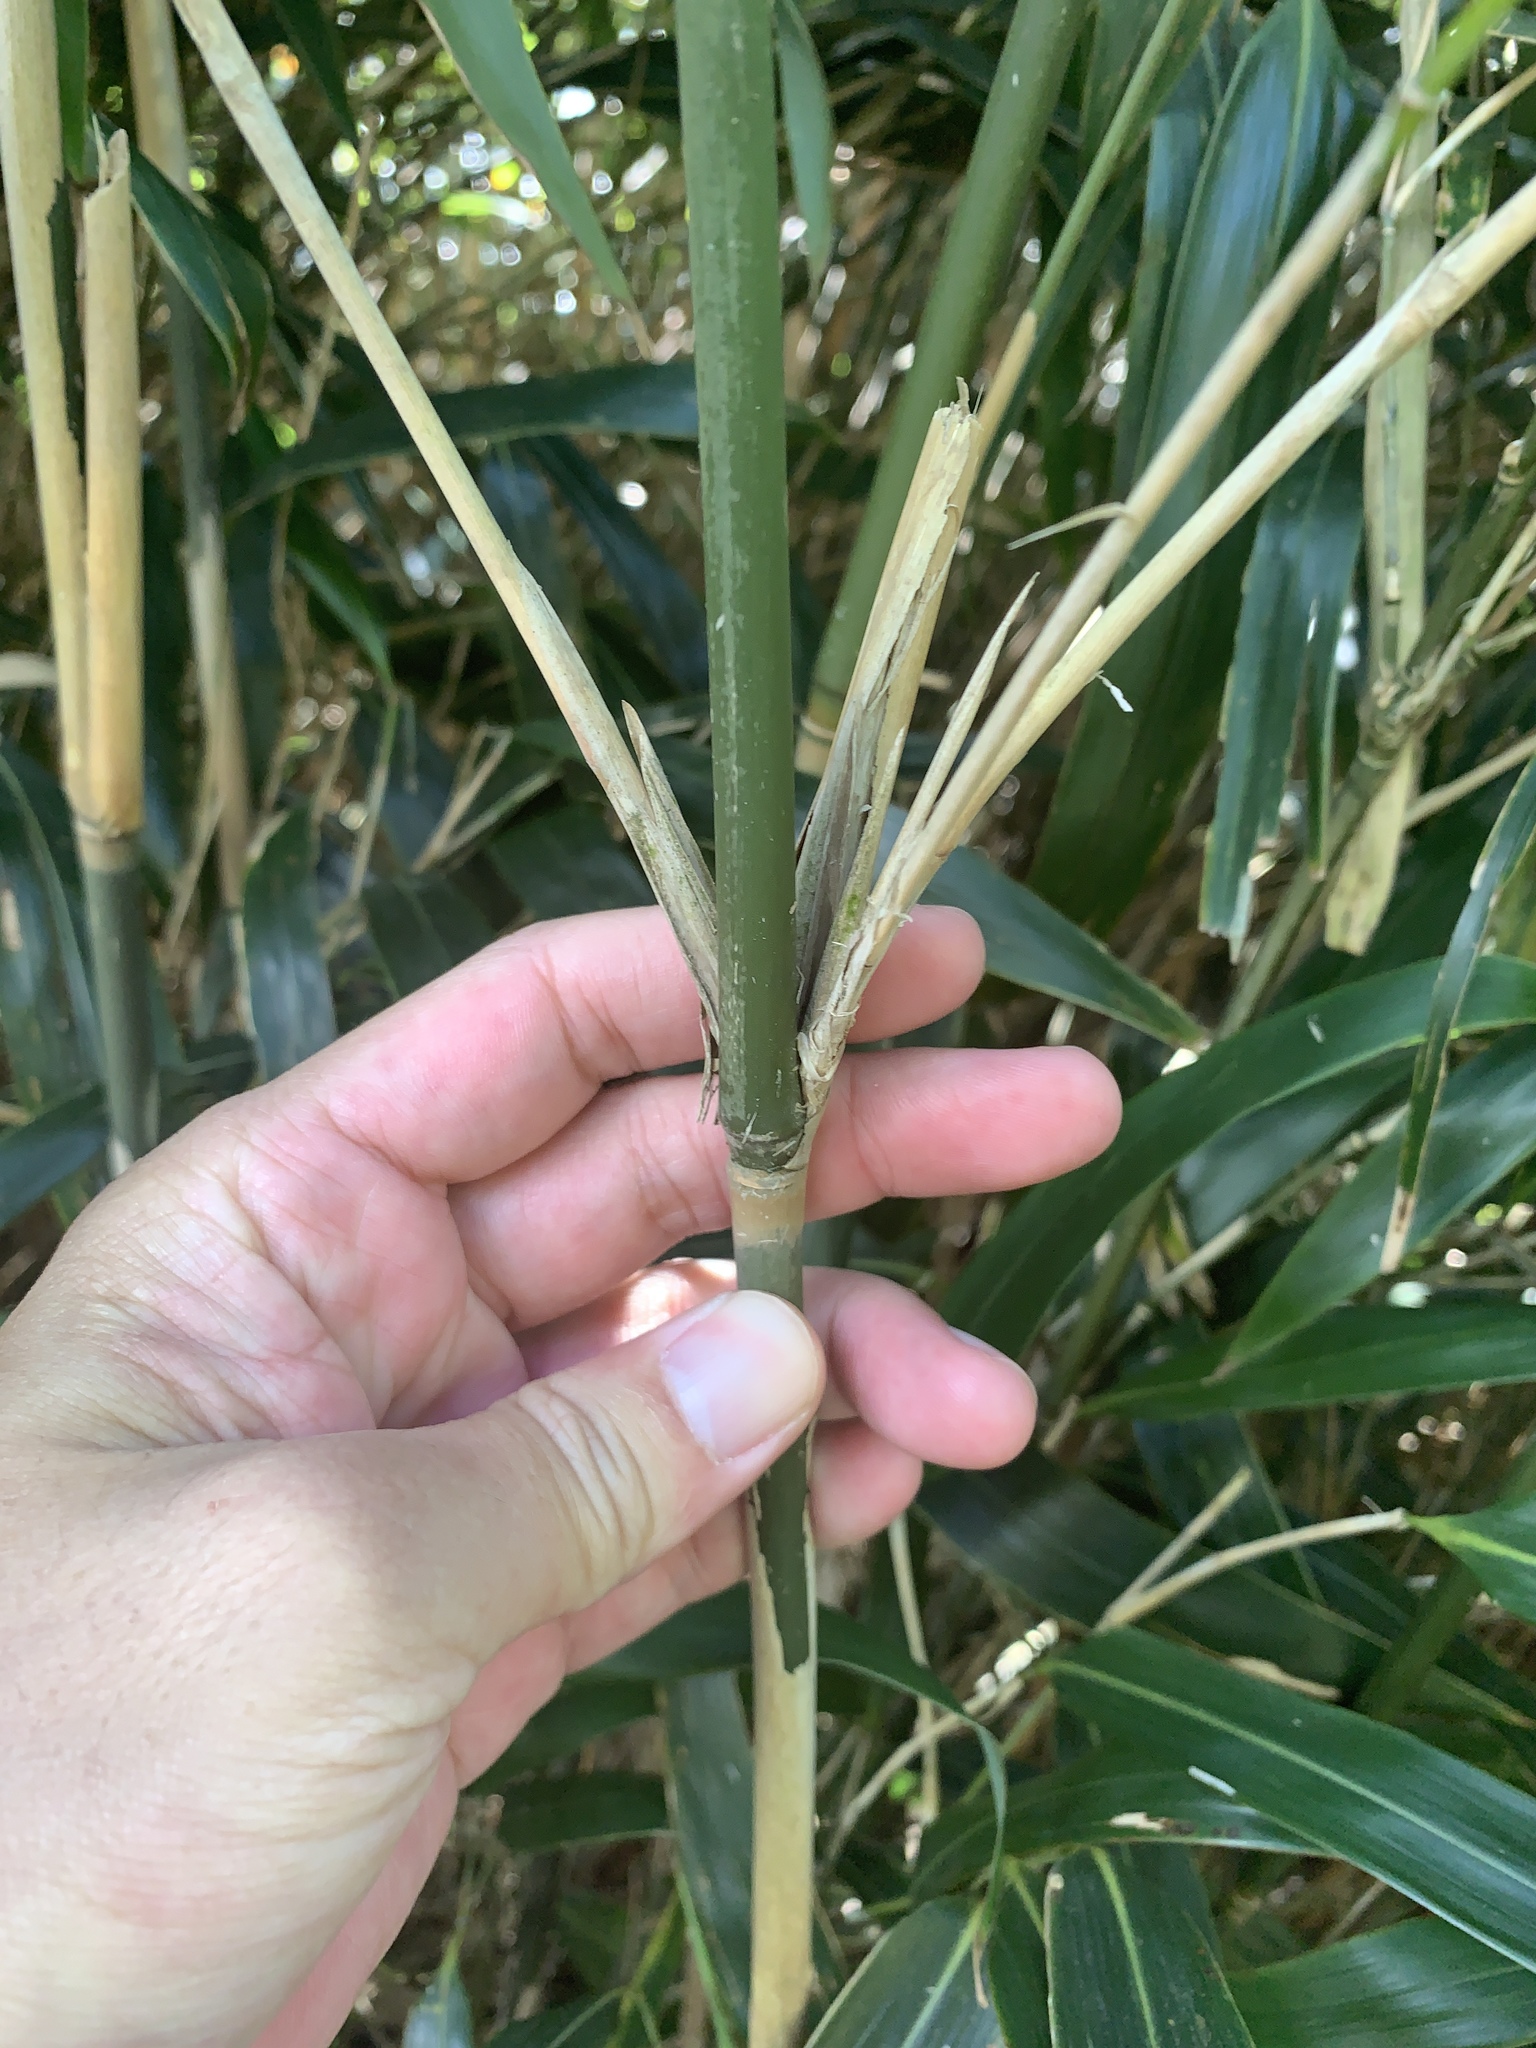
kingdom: Plantae
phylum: Tracheophyta
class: Liliopsida
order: Poales
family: Poaceae
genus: Pseudosasa
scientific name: Pseudosasa japonica
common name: Arrow bamboo
